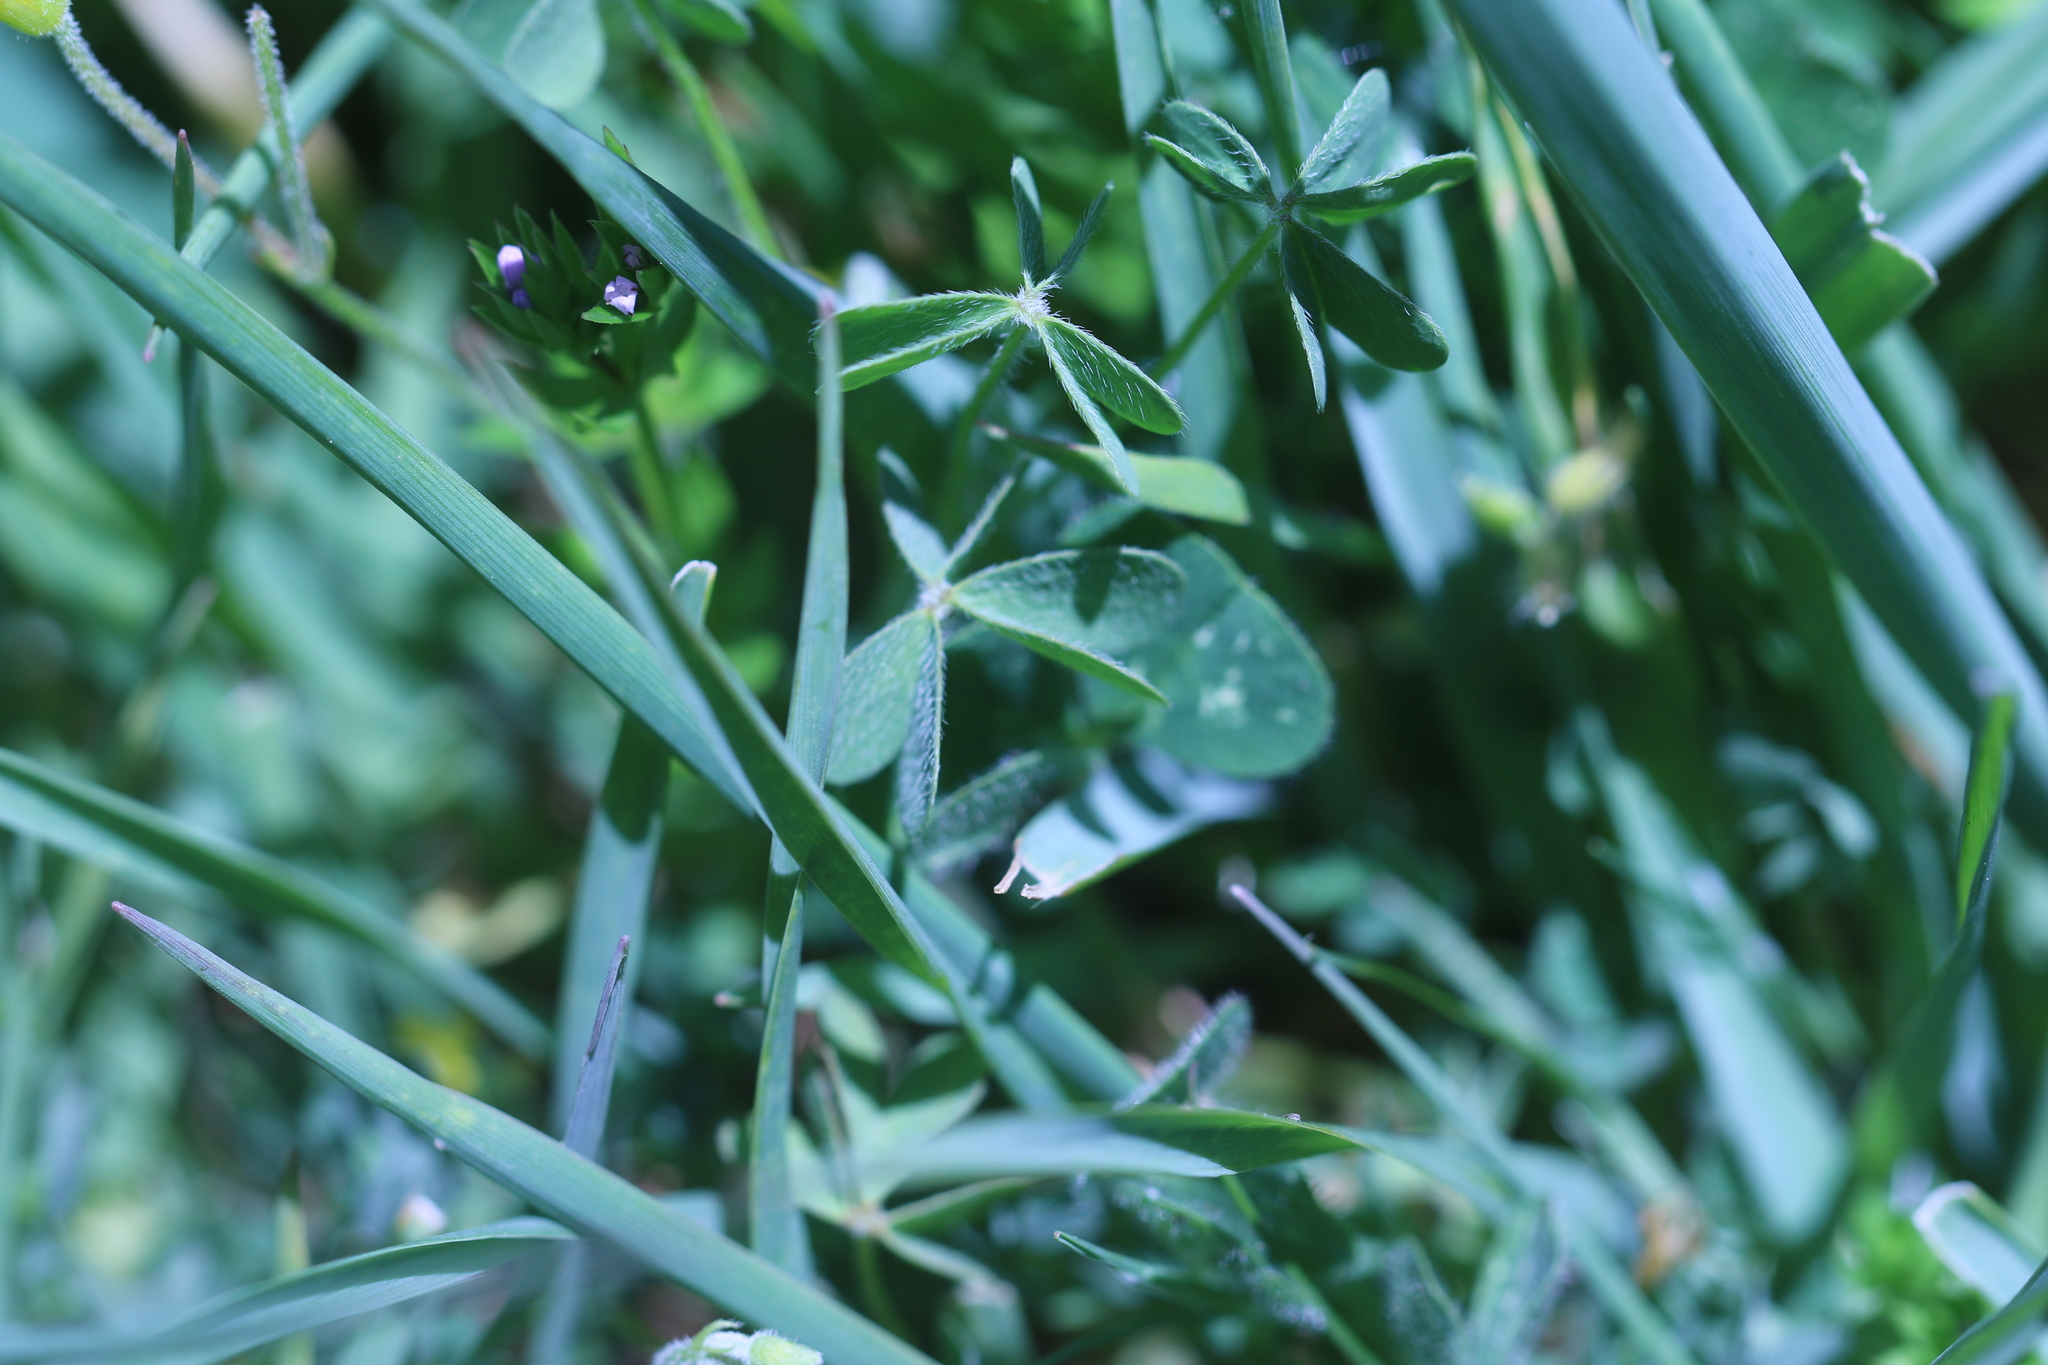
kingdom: Plantae
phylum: Tracheophyta
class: Magnoliopsida
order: Oxalidales
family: Oxalidaceae
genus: Oxalis
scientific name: Oxalis corniculata
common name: Procumbent yellow-sorrel
